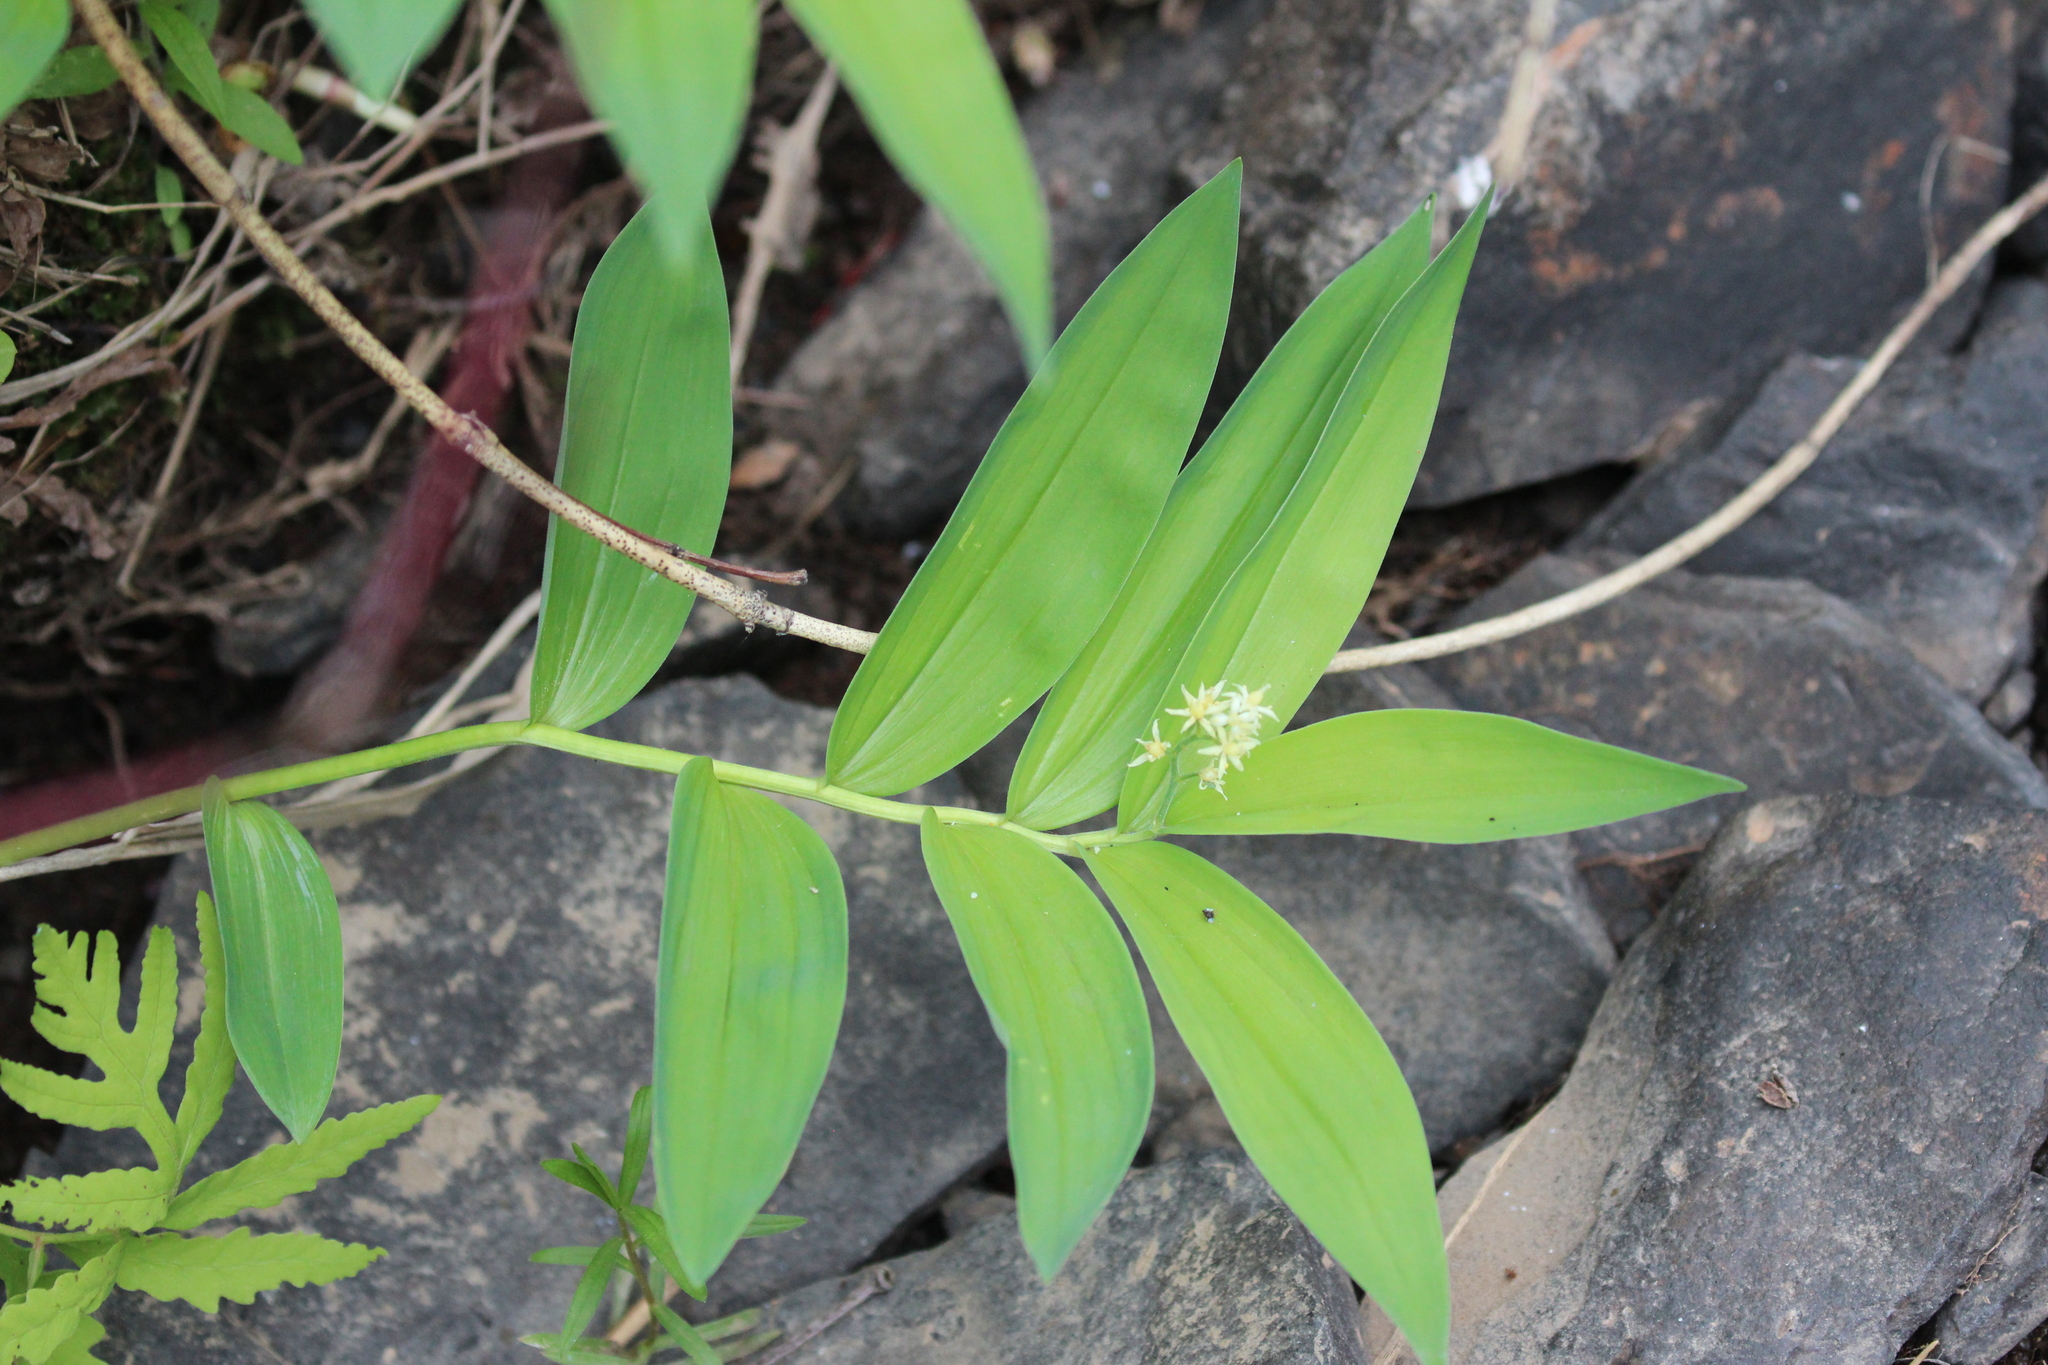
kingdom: Plantae
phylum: Tracheophyta
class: Liliopsida
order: Asparagales
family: Asparagaceae
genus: Maianthemum
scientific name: Maianthemum stellatum
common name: Little false solomon's seal
